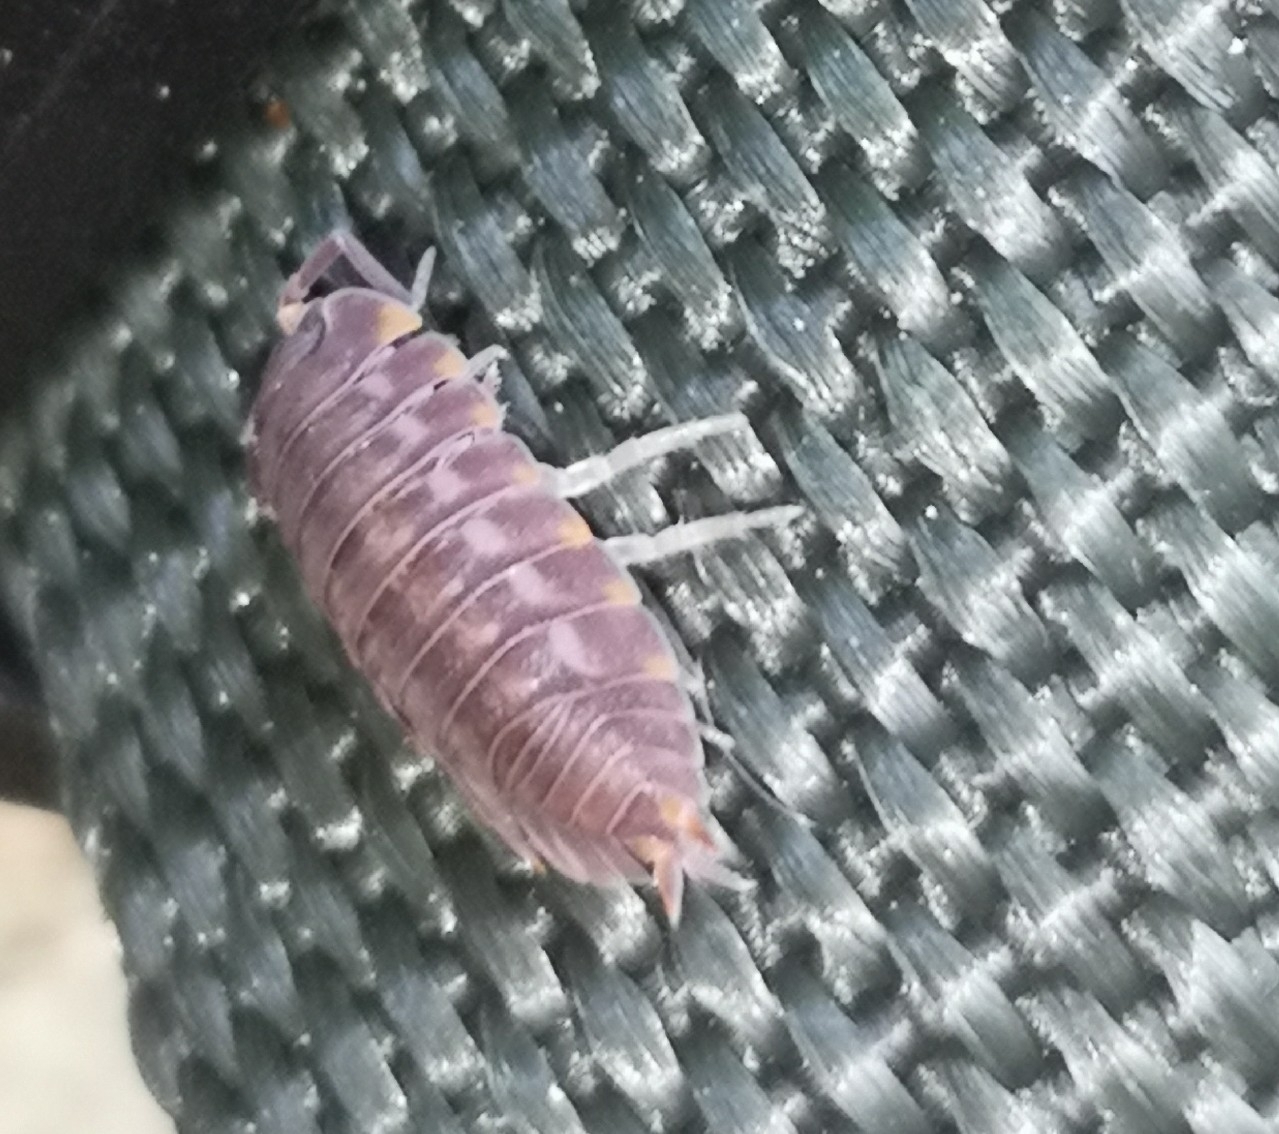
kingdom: Animalia
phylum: Arthropoda
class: Malacostraca
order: Isopoda
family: Trachelipodidae
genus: Trachelipus
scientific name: Trachelipus ratzeburgii
